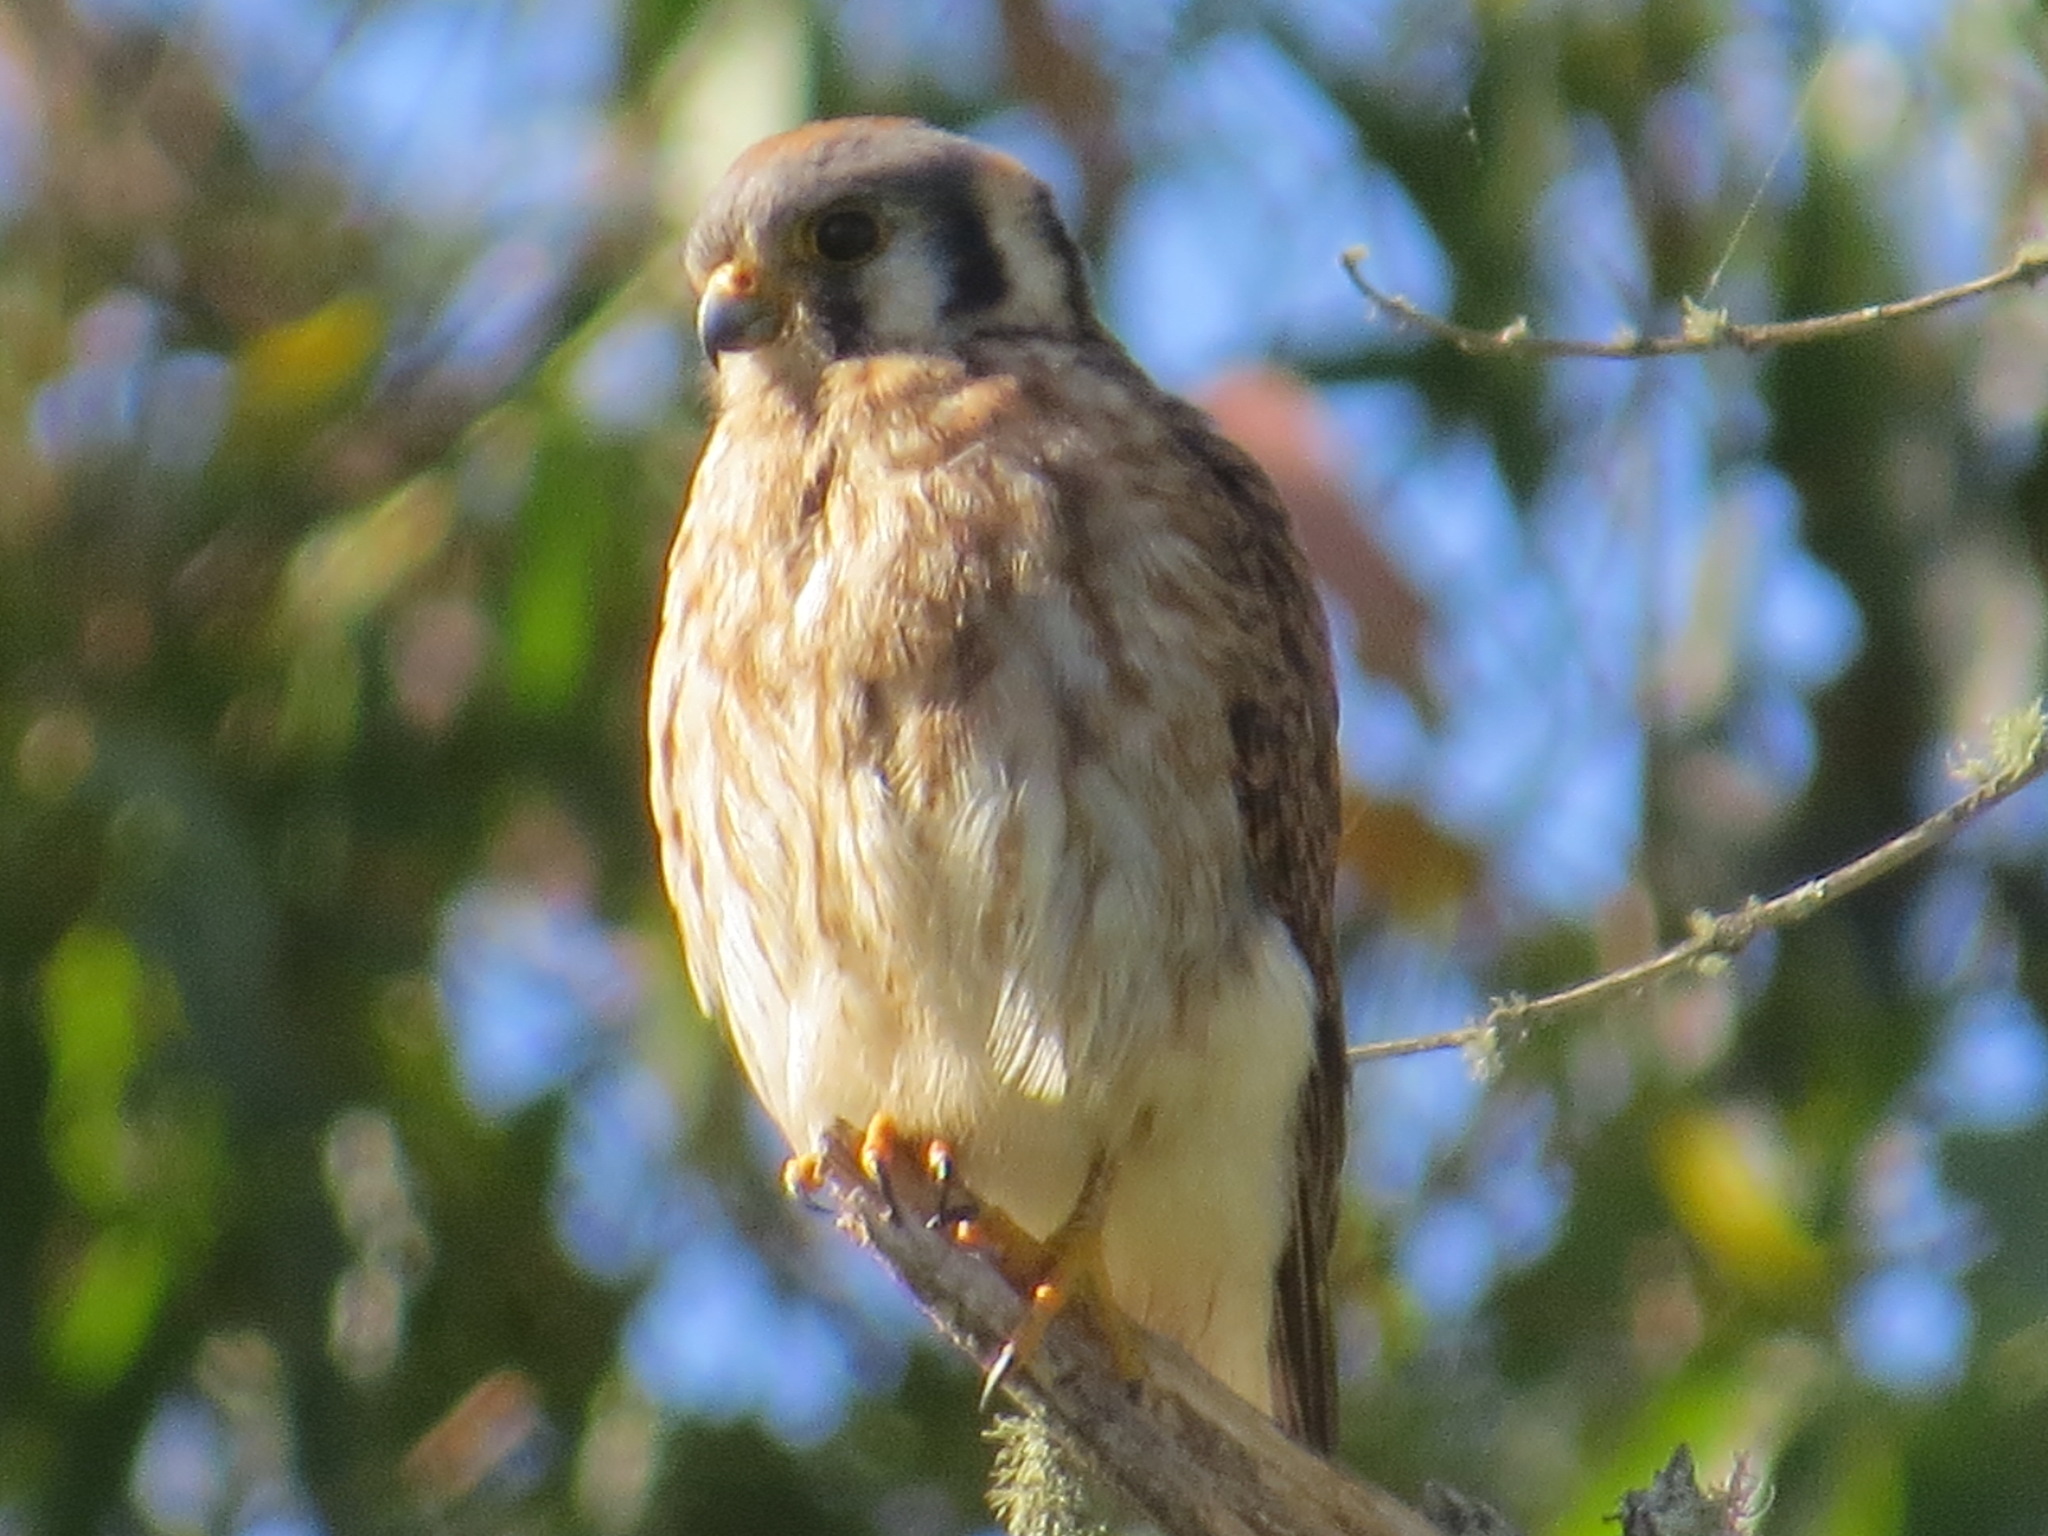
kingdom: Animalia
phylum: Chordata
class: Aves
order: Falconiformes
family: Falconidae
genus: Falco
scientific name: Falco sparverius
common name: American kestrel
